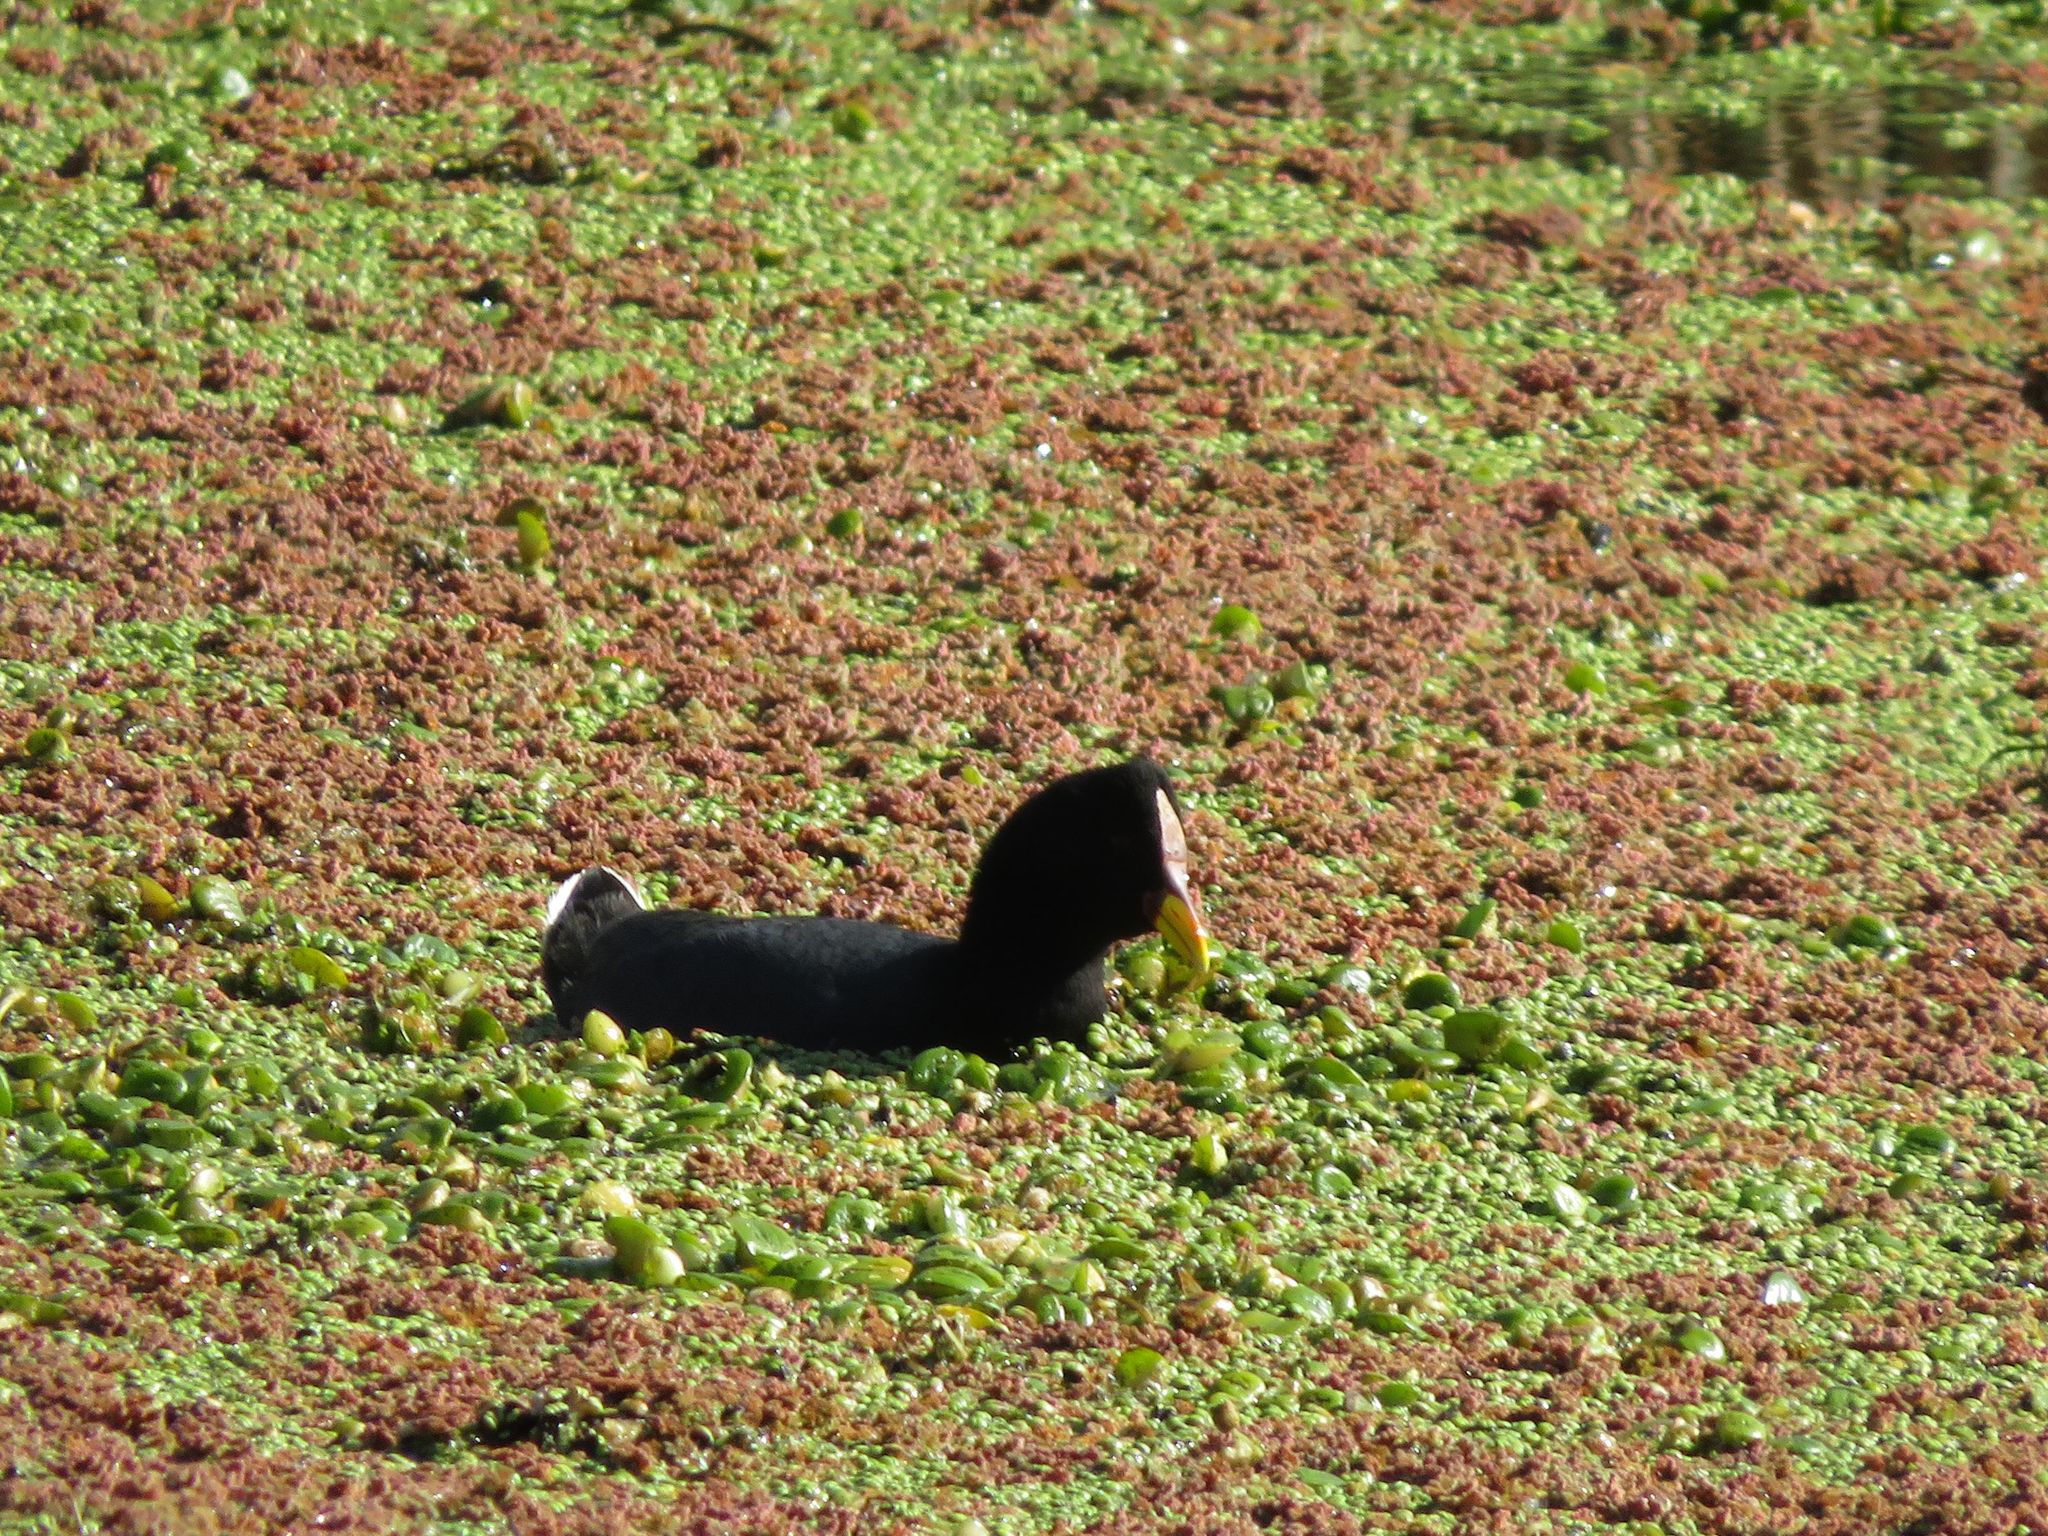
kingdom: Animalia
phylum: Chordata
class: Aves
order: Gruiformes
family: Rallidae
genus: Fulica
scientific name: Fulica rufifrons
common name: Red-fronted coot
